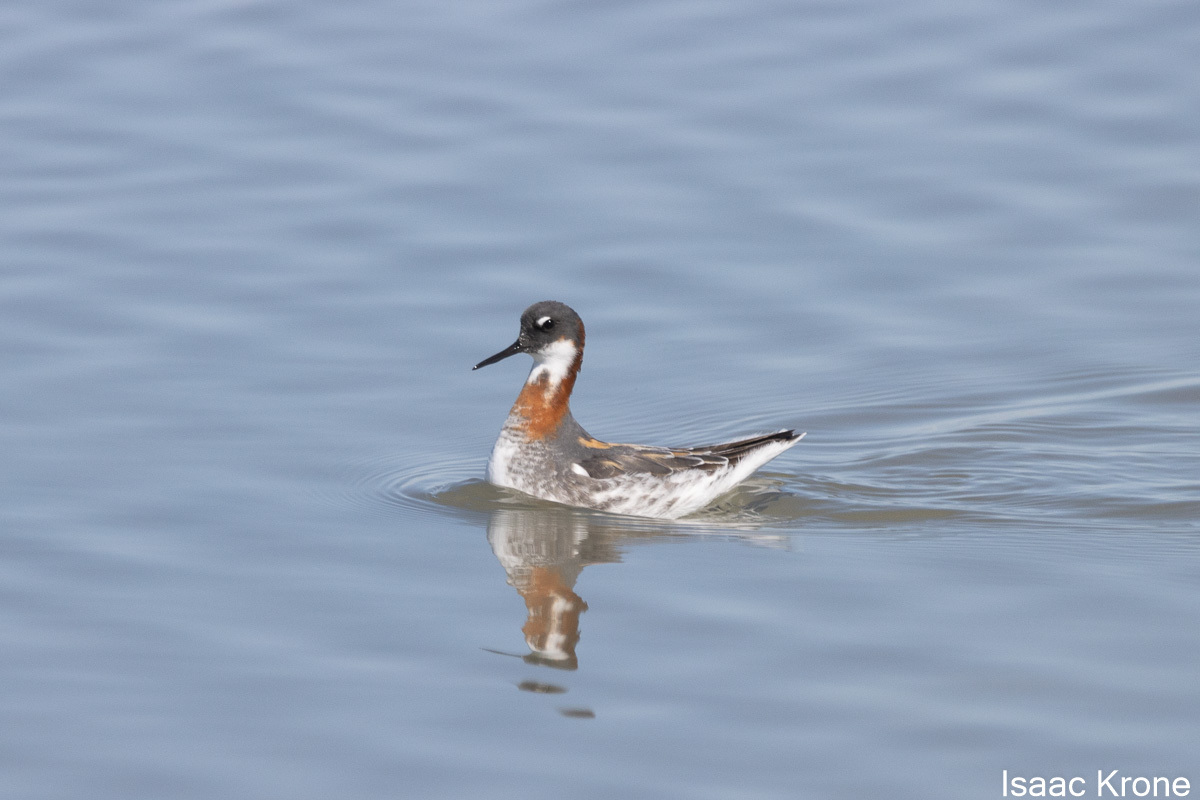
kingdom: Animalia
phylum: Chordata
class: Aves
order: Charadriiformes
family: Scolopacidae
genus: Phalaropus
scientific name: Phalaropus lobatus
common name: Red-necked phalarope
